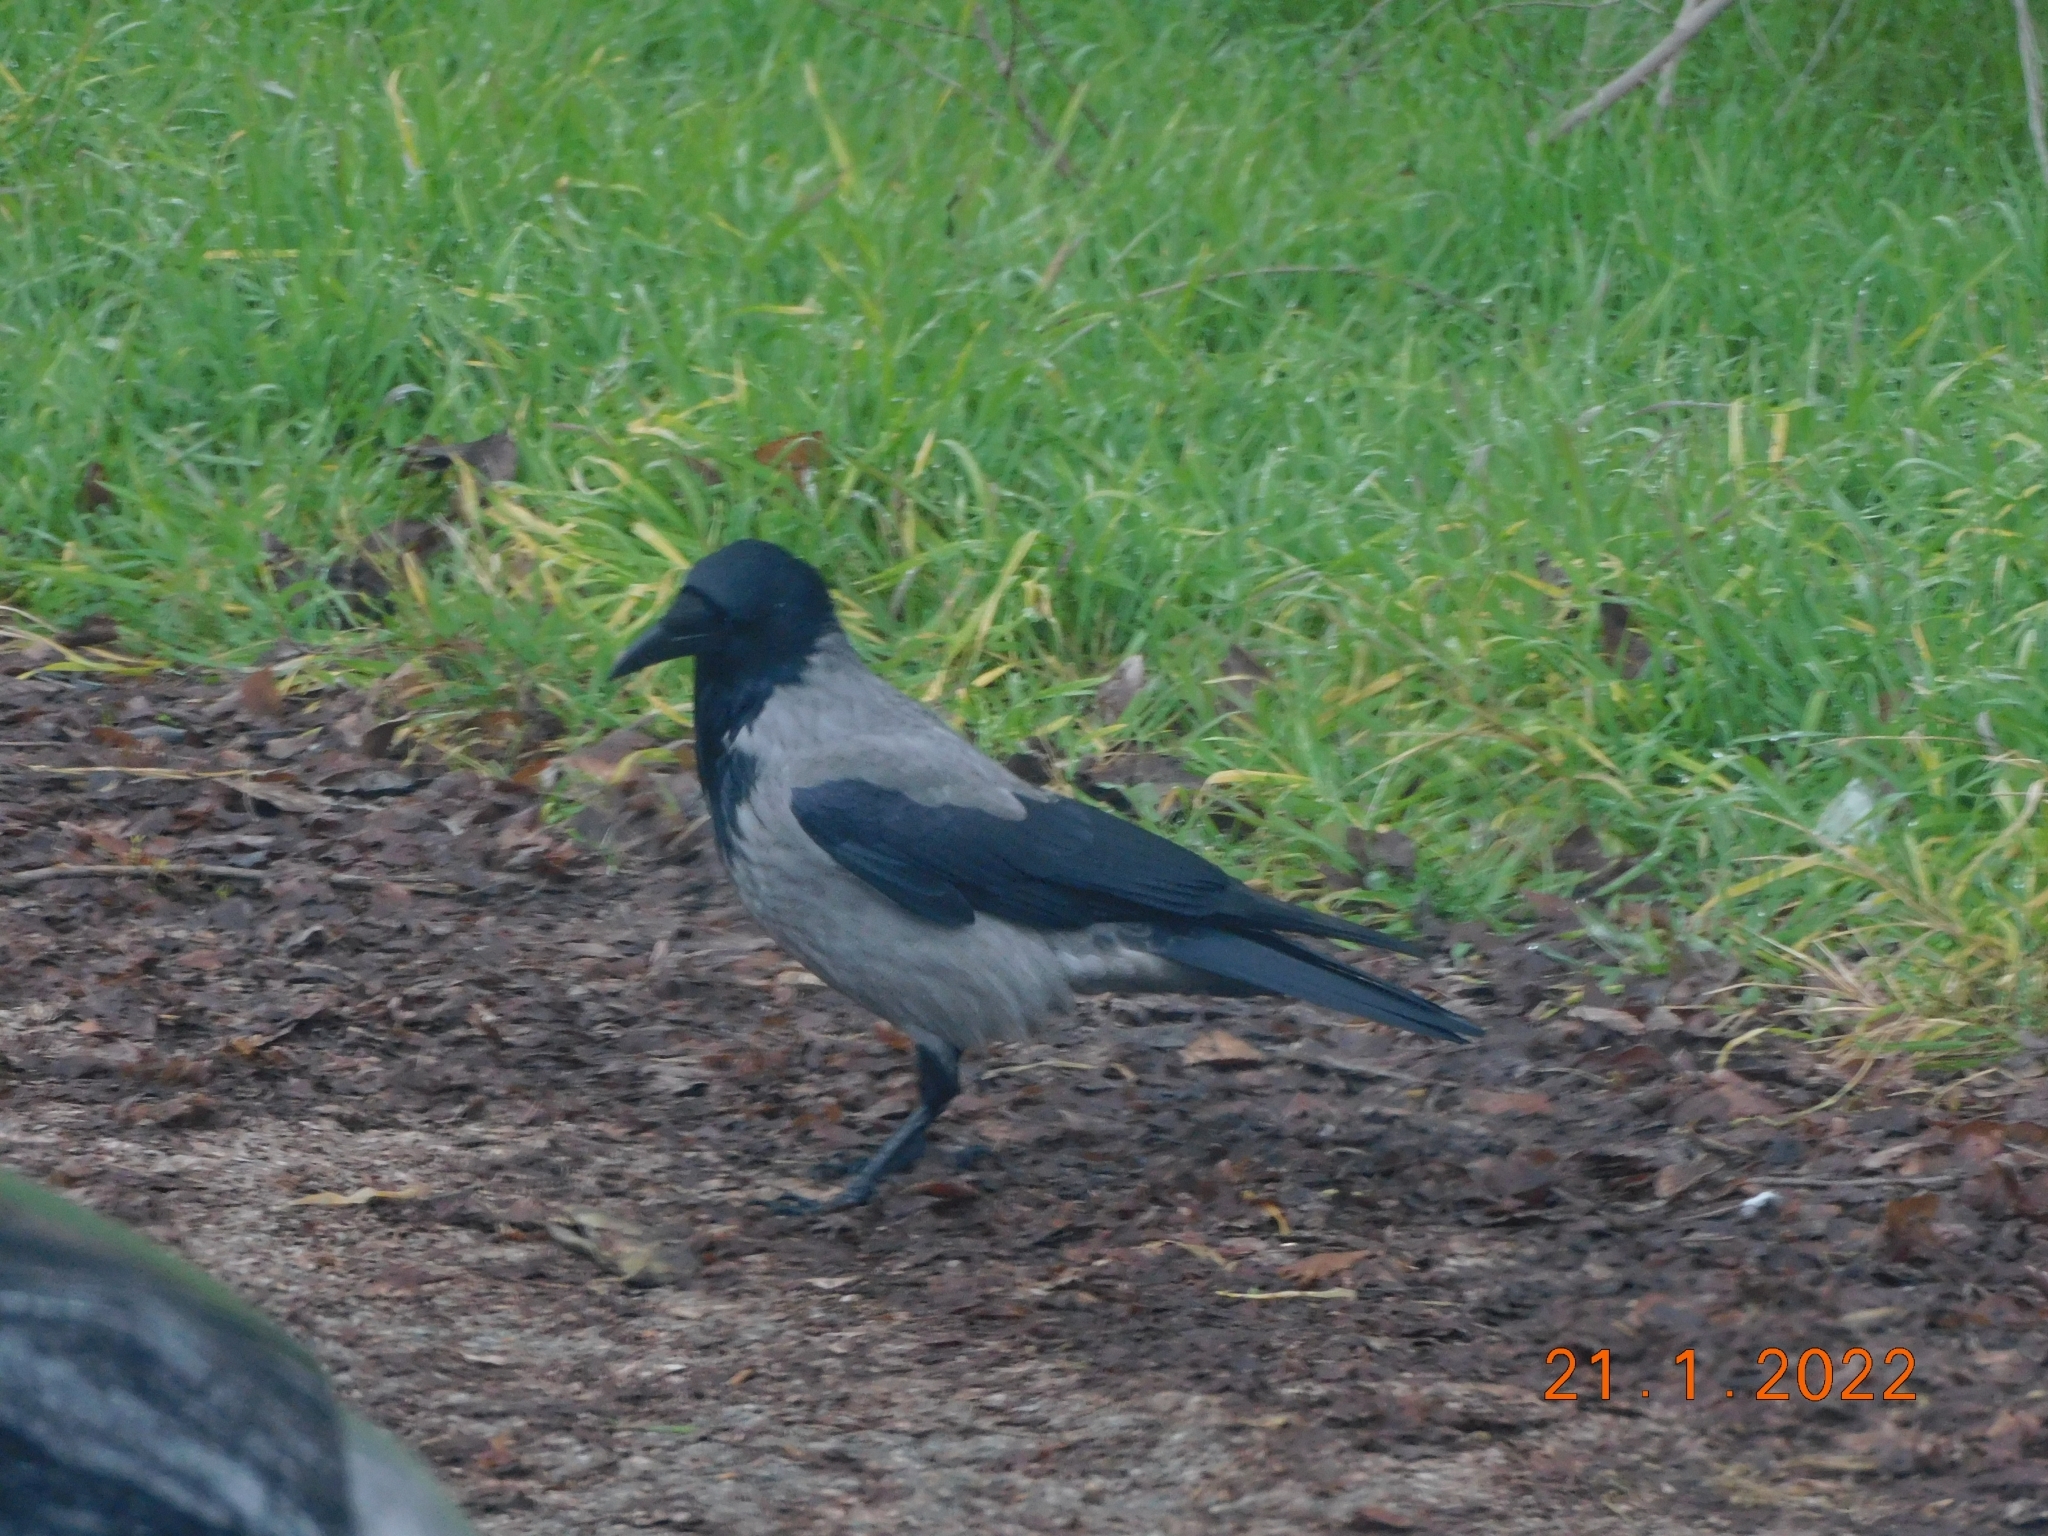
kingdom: Animalia
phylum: Chordata
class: Aves
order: Passeriformes
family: Corvidae
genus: Corvus
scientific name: Corvus cornix
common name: Hooded crow
